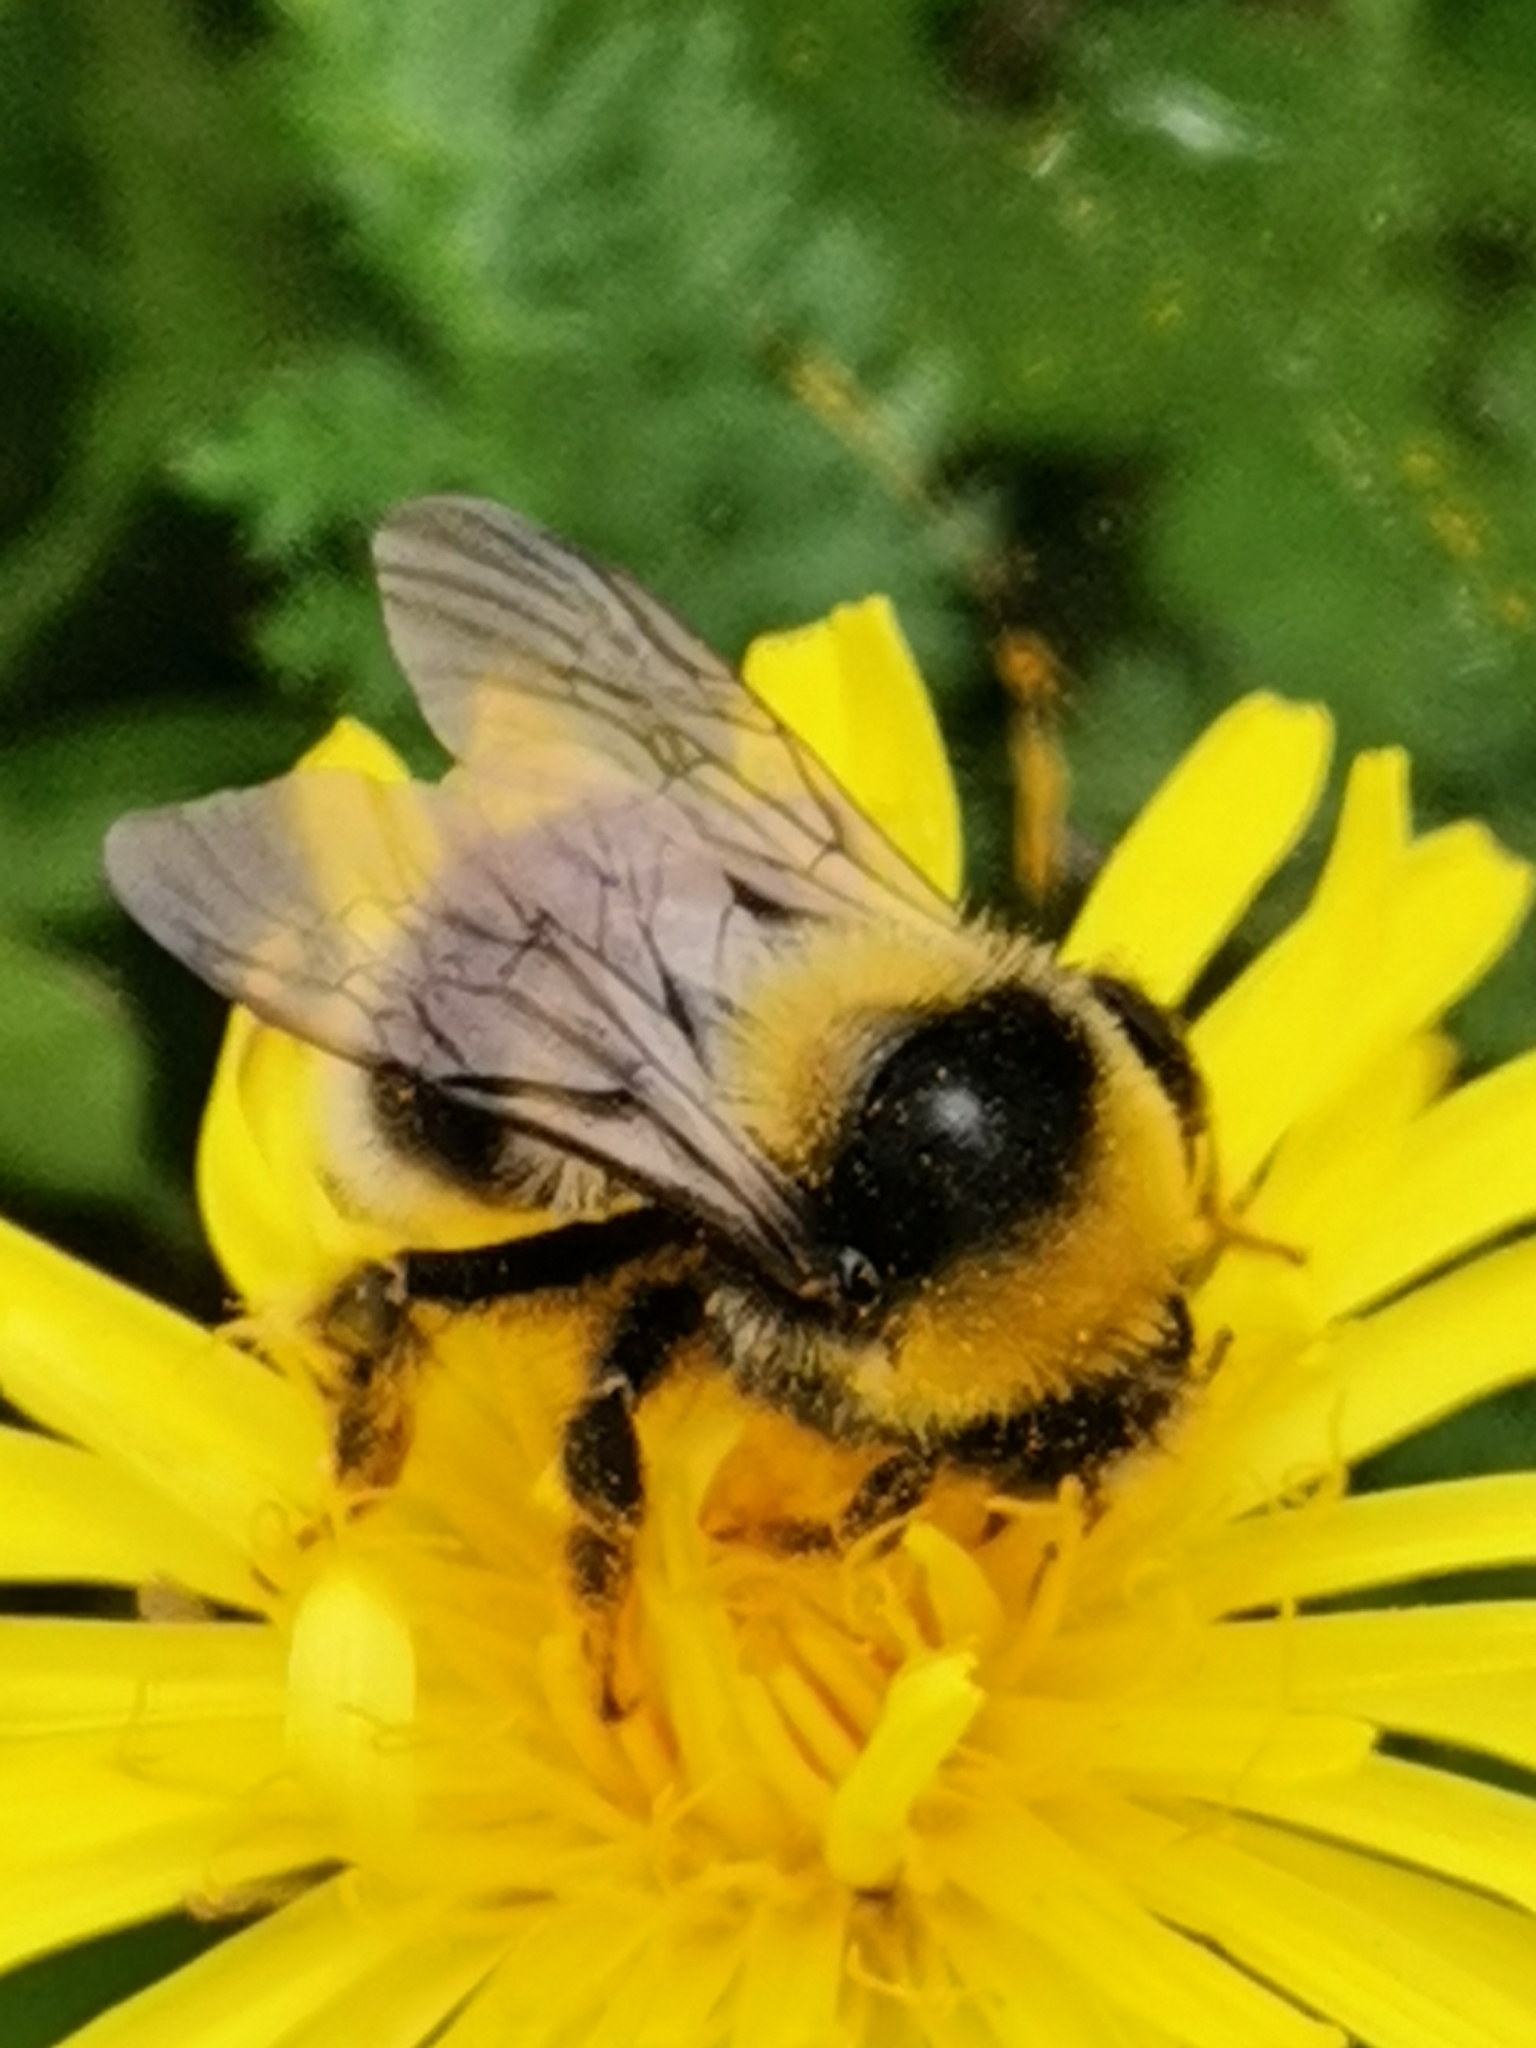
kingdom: Animalia
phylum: Arthropoda
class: Insecta
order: Hymenoptera
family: Apidae
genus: Bombus
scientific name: Bombus semenoviellus
